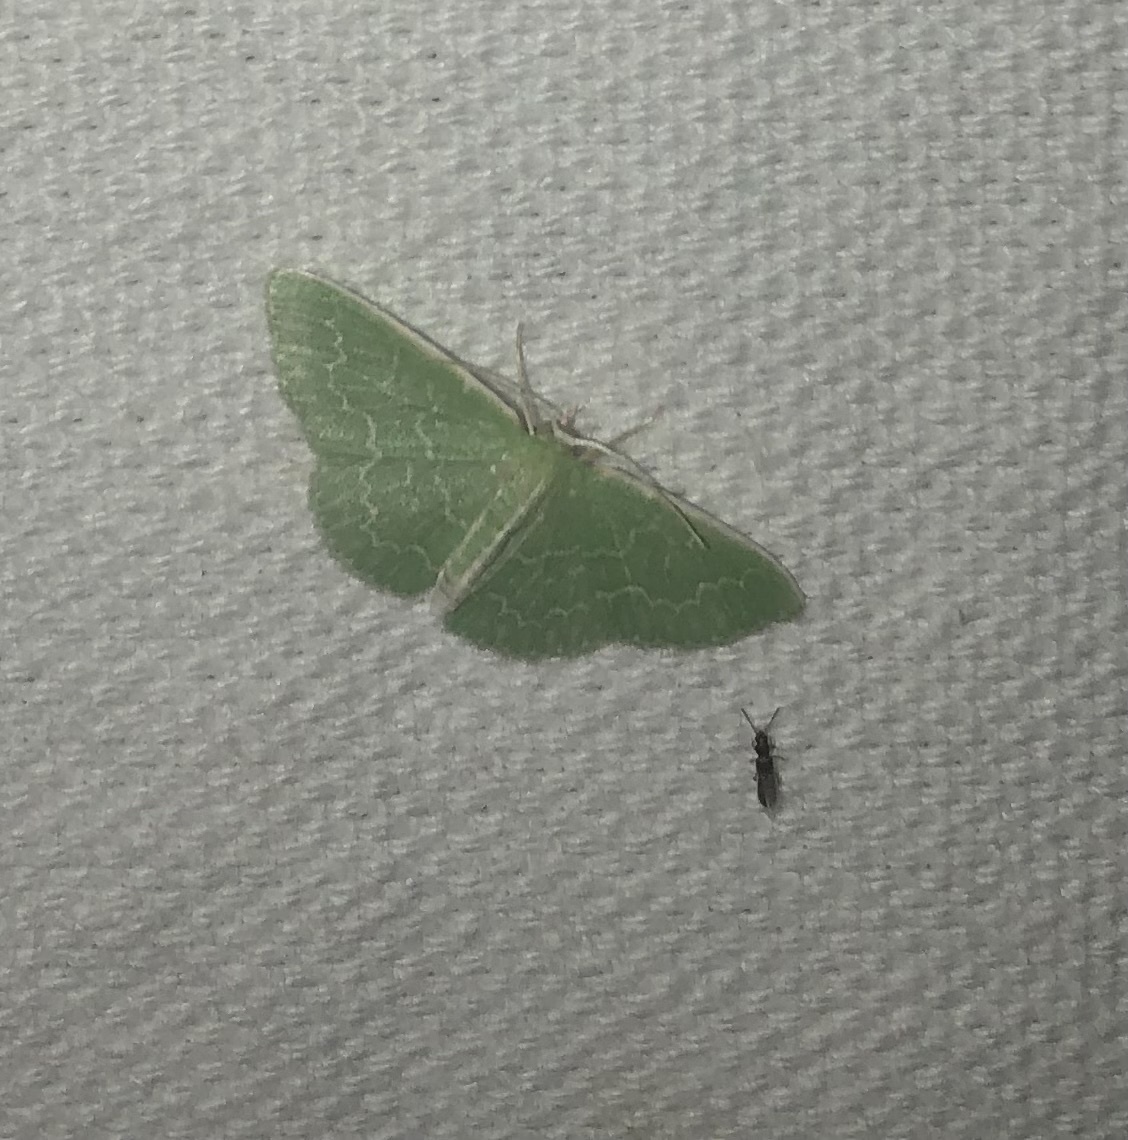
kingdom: Animalia
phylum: Arthropoda
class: Insecta
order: Lepidoptera
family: Geometridae
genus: Synchlora
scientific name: Synchlora frondaria
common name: Southern emerald
